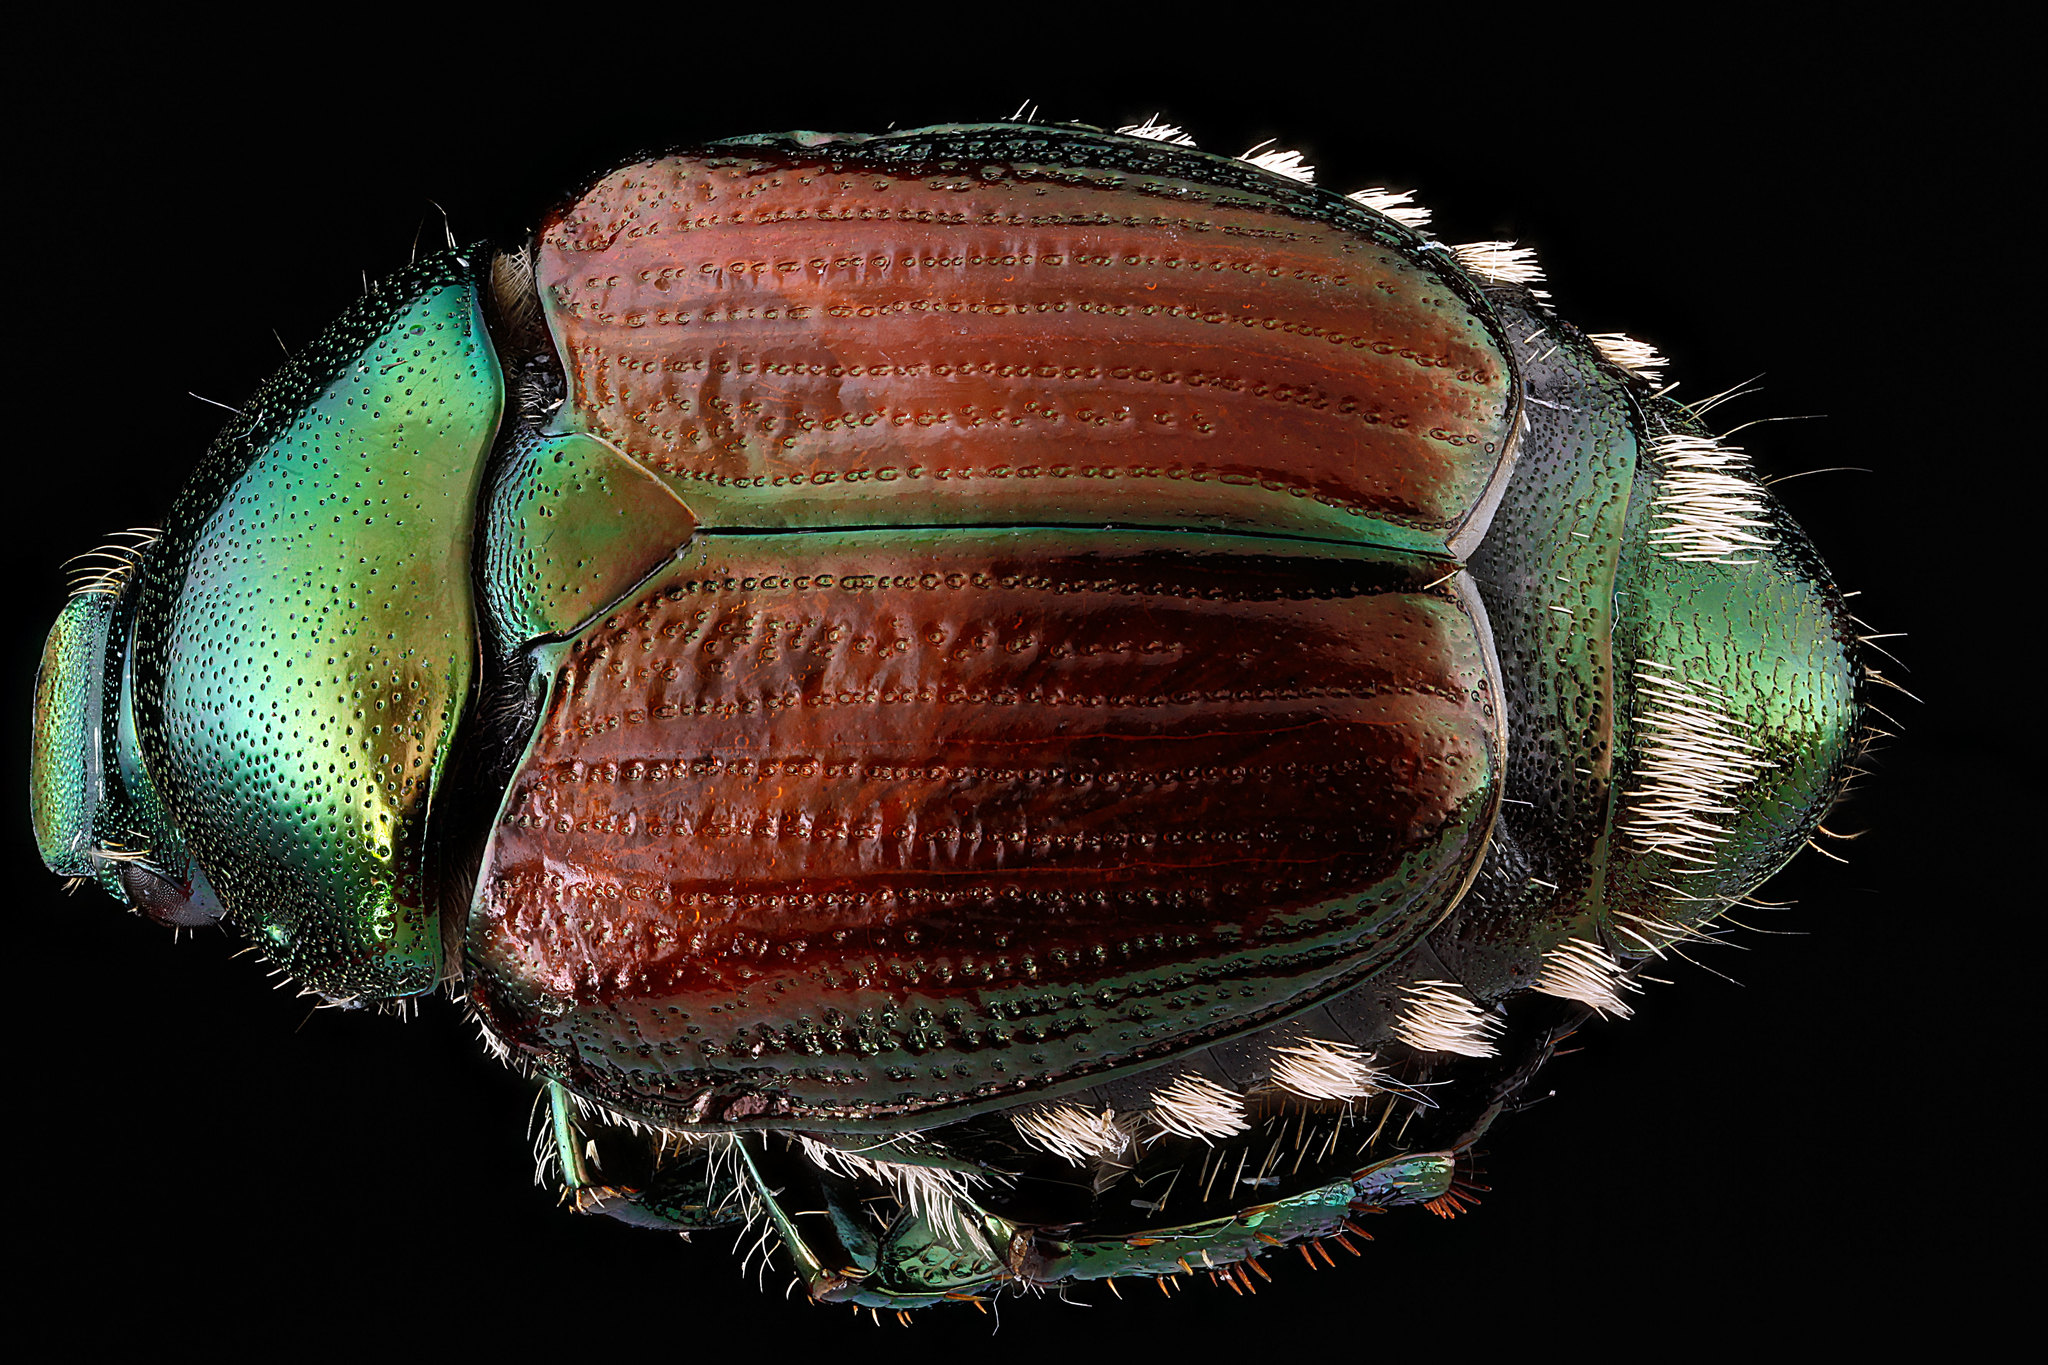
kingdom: Animalia
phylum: Arthropoda
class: Insecta
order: Coleoptera
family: Scarabaeidae
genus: Popillia
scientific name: Popillia japonica
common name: Japanese beetle
